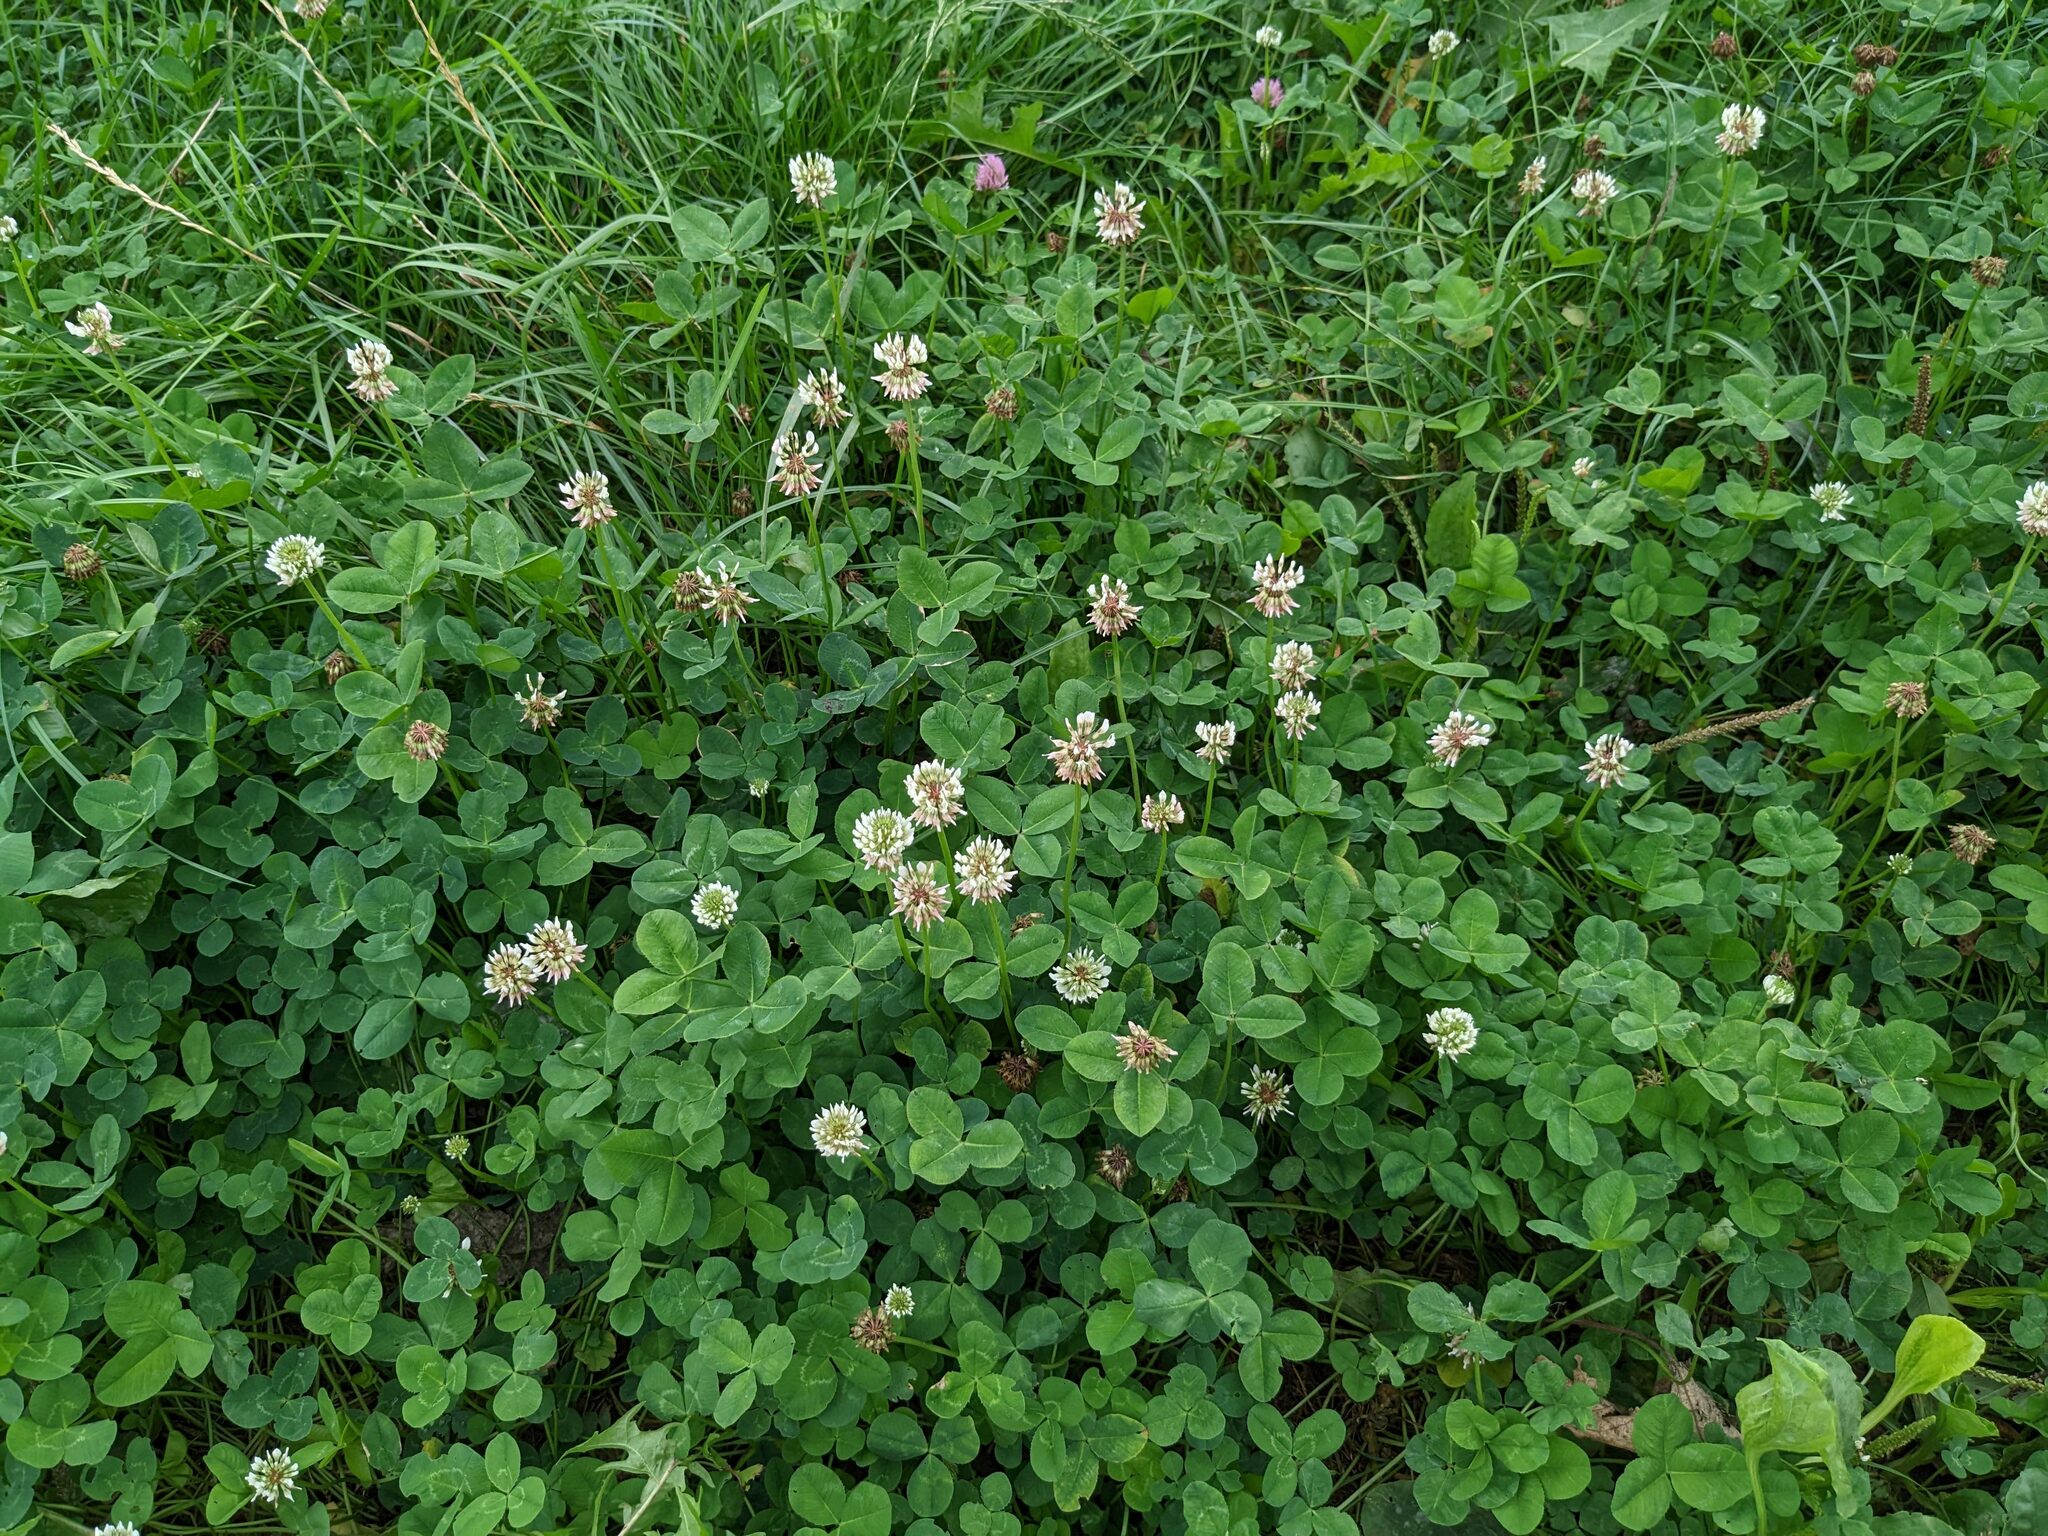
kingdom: Plantae
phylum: Tracheophyta
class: Magnoliopsida
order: Fabales
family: Fabaceae
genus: Trifolium
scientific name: Trifolium repens
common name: White clover
